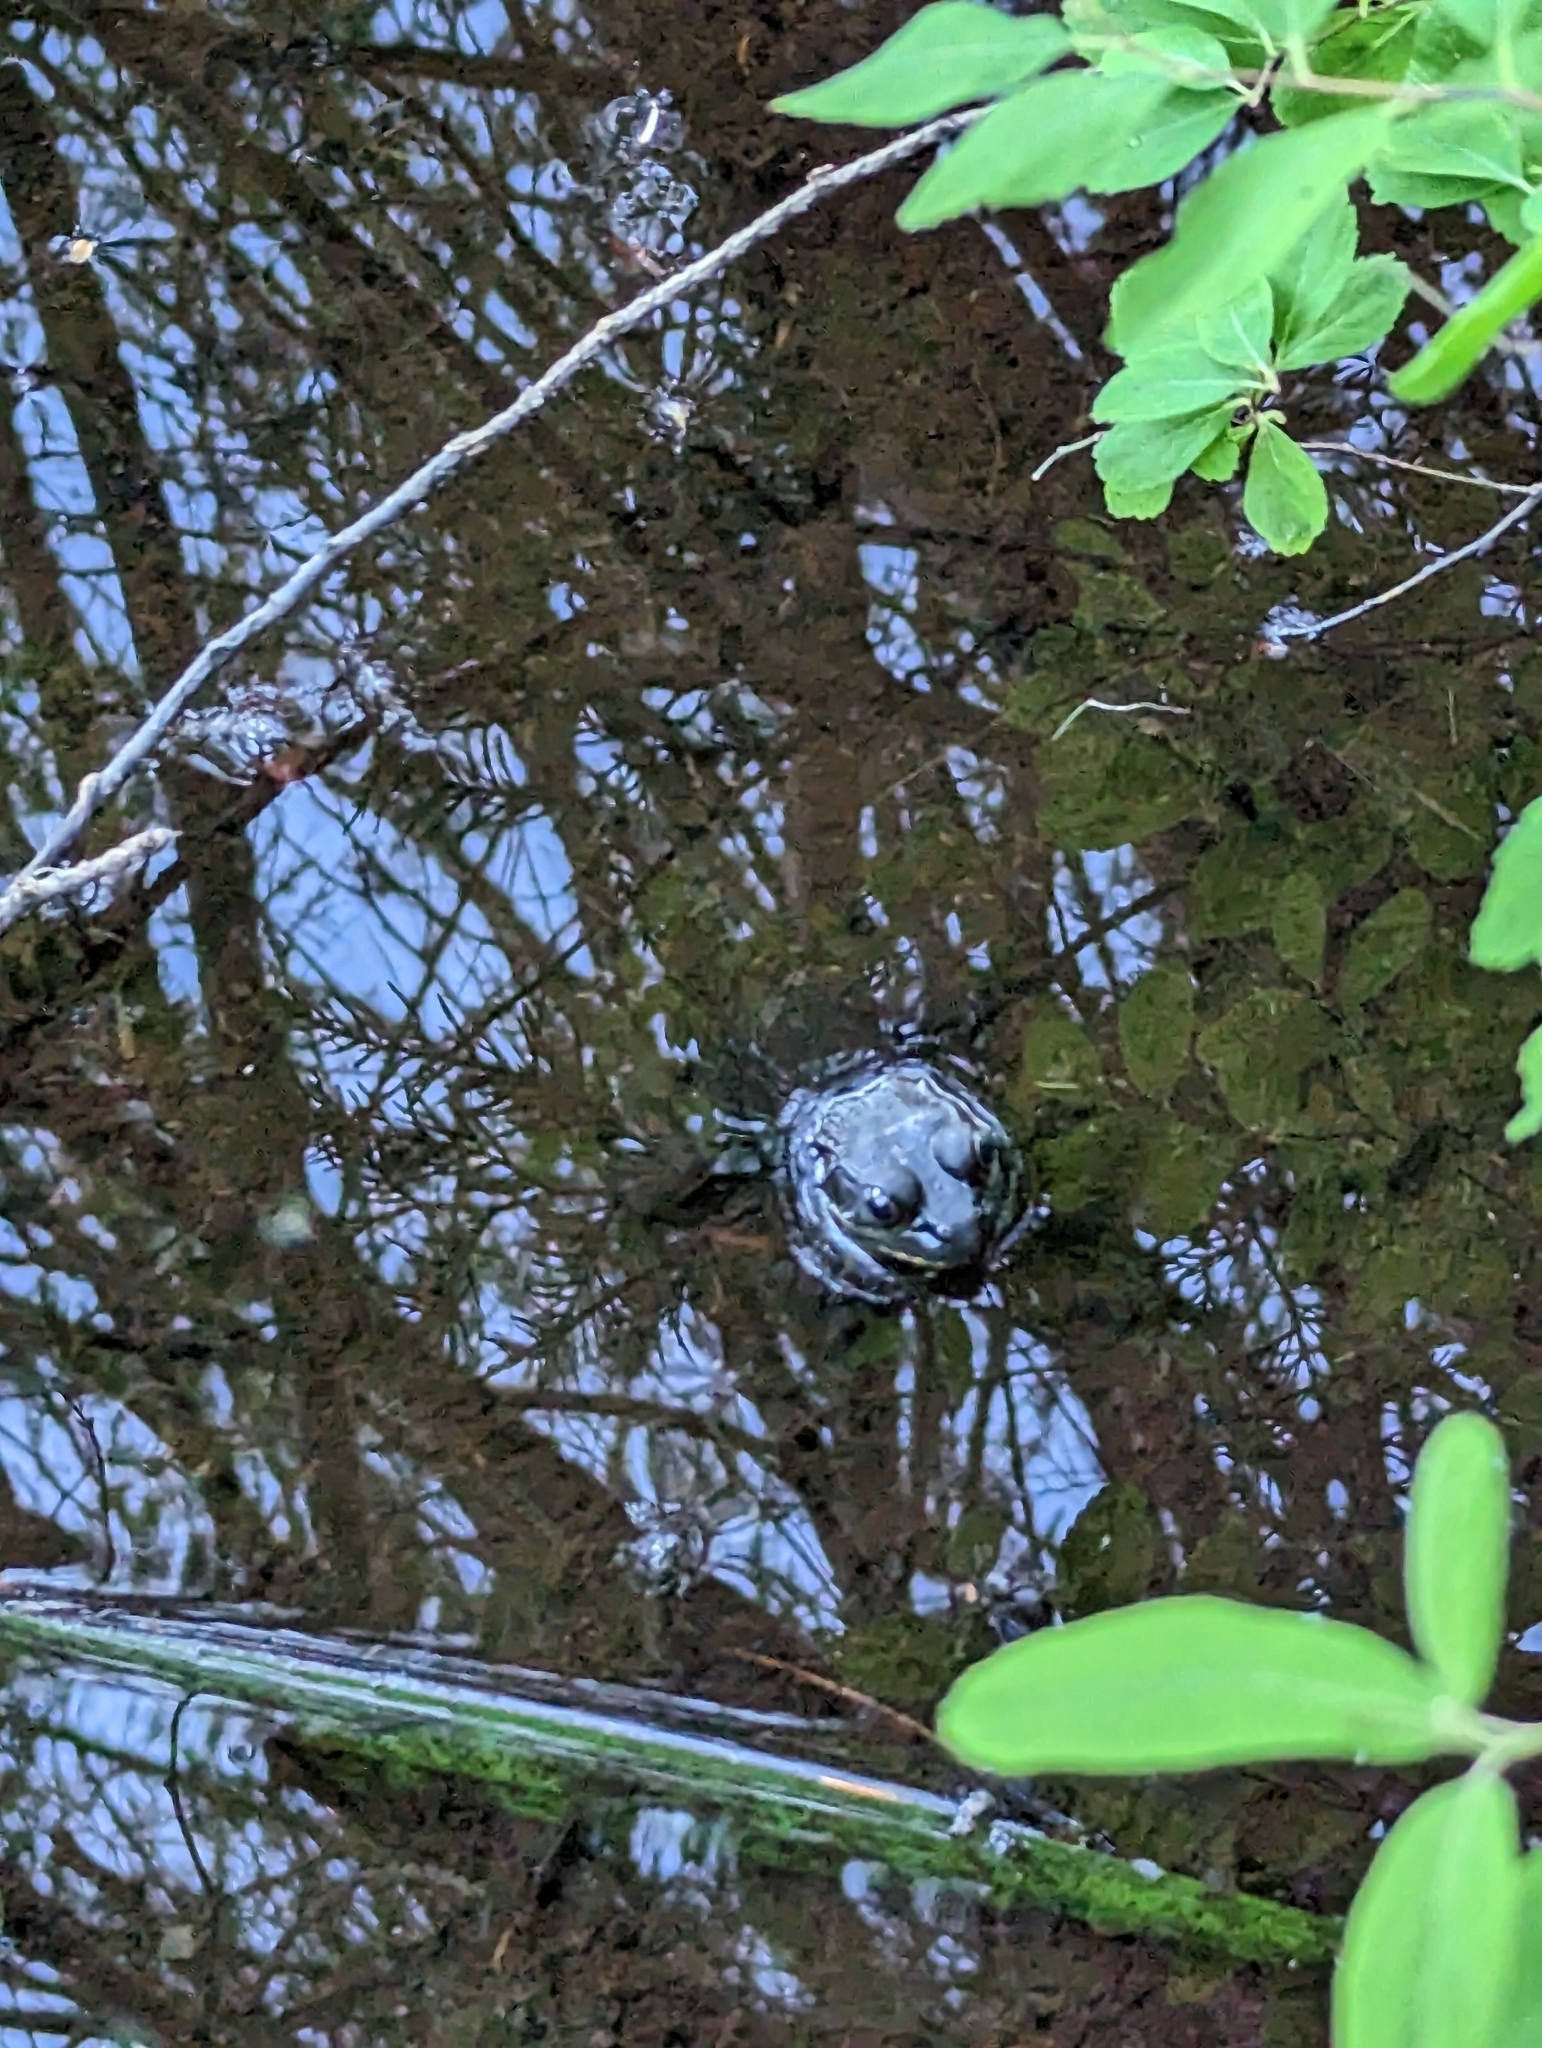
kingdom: Animalia
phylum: Chordata
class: Amphibia
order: Anura
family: Ranidae
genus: Lithobates
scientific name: Lithobates clamitans
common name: Green frog
